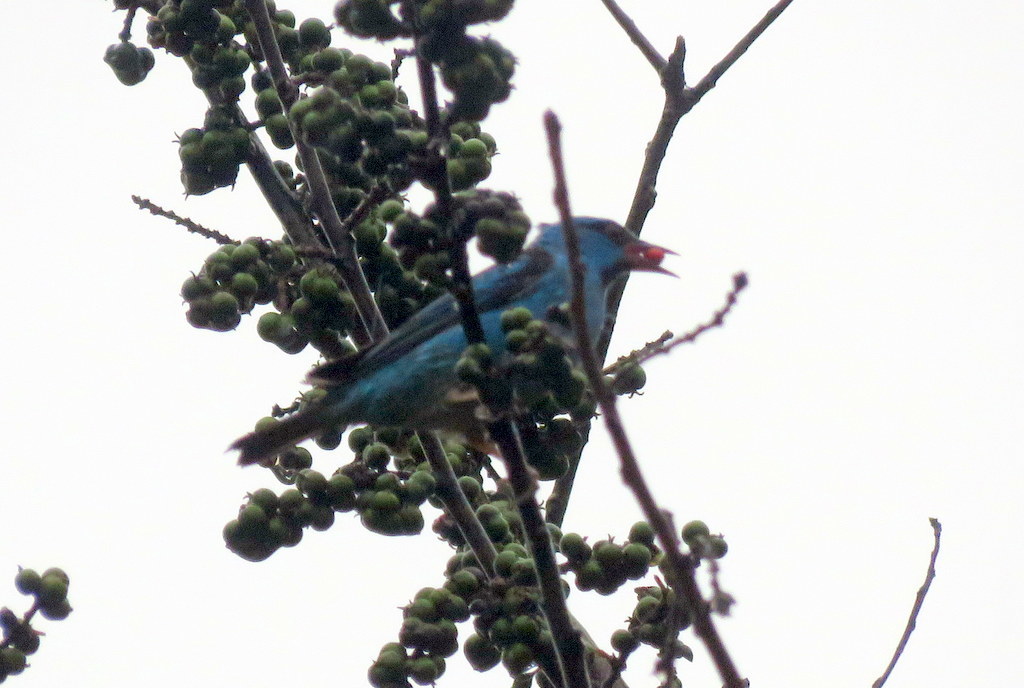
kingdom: Animalia
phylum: Chordata
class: Aves
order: Passeriformes
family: Thraupidae
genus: Dacnis
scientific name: Dacnis cayana
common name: Blue dacnis
